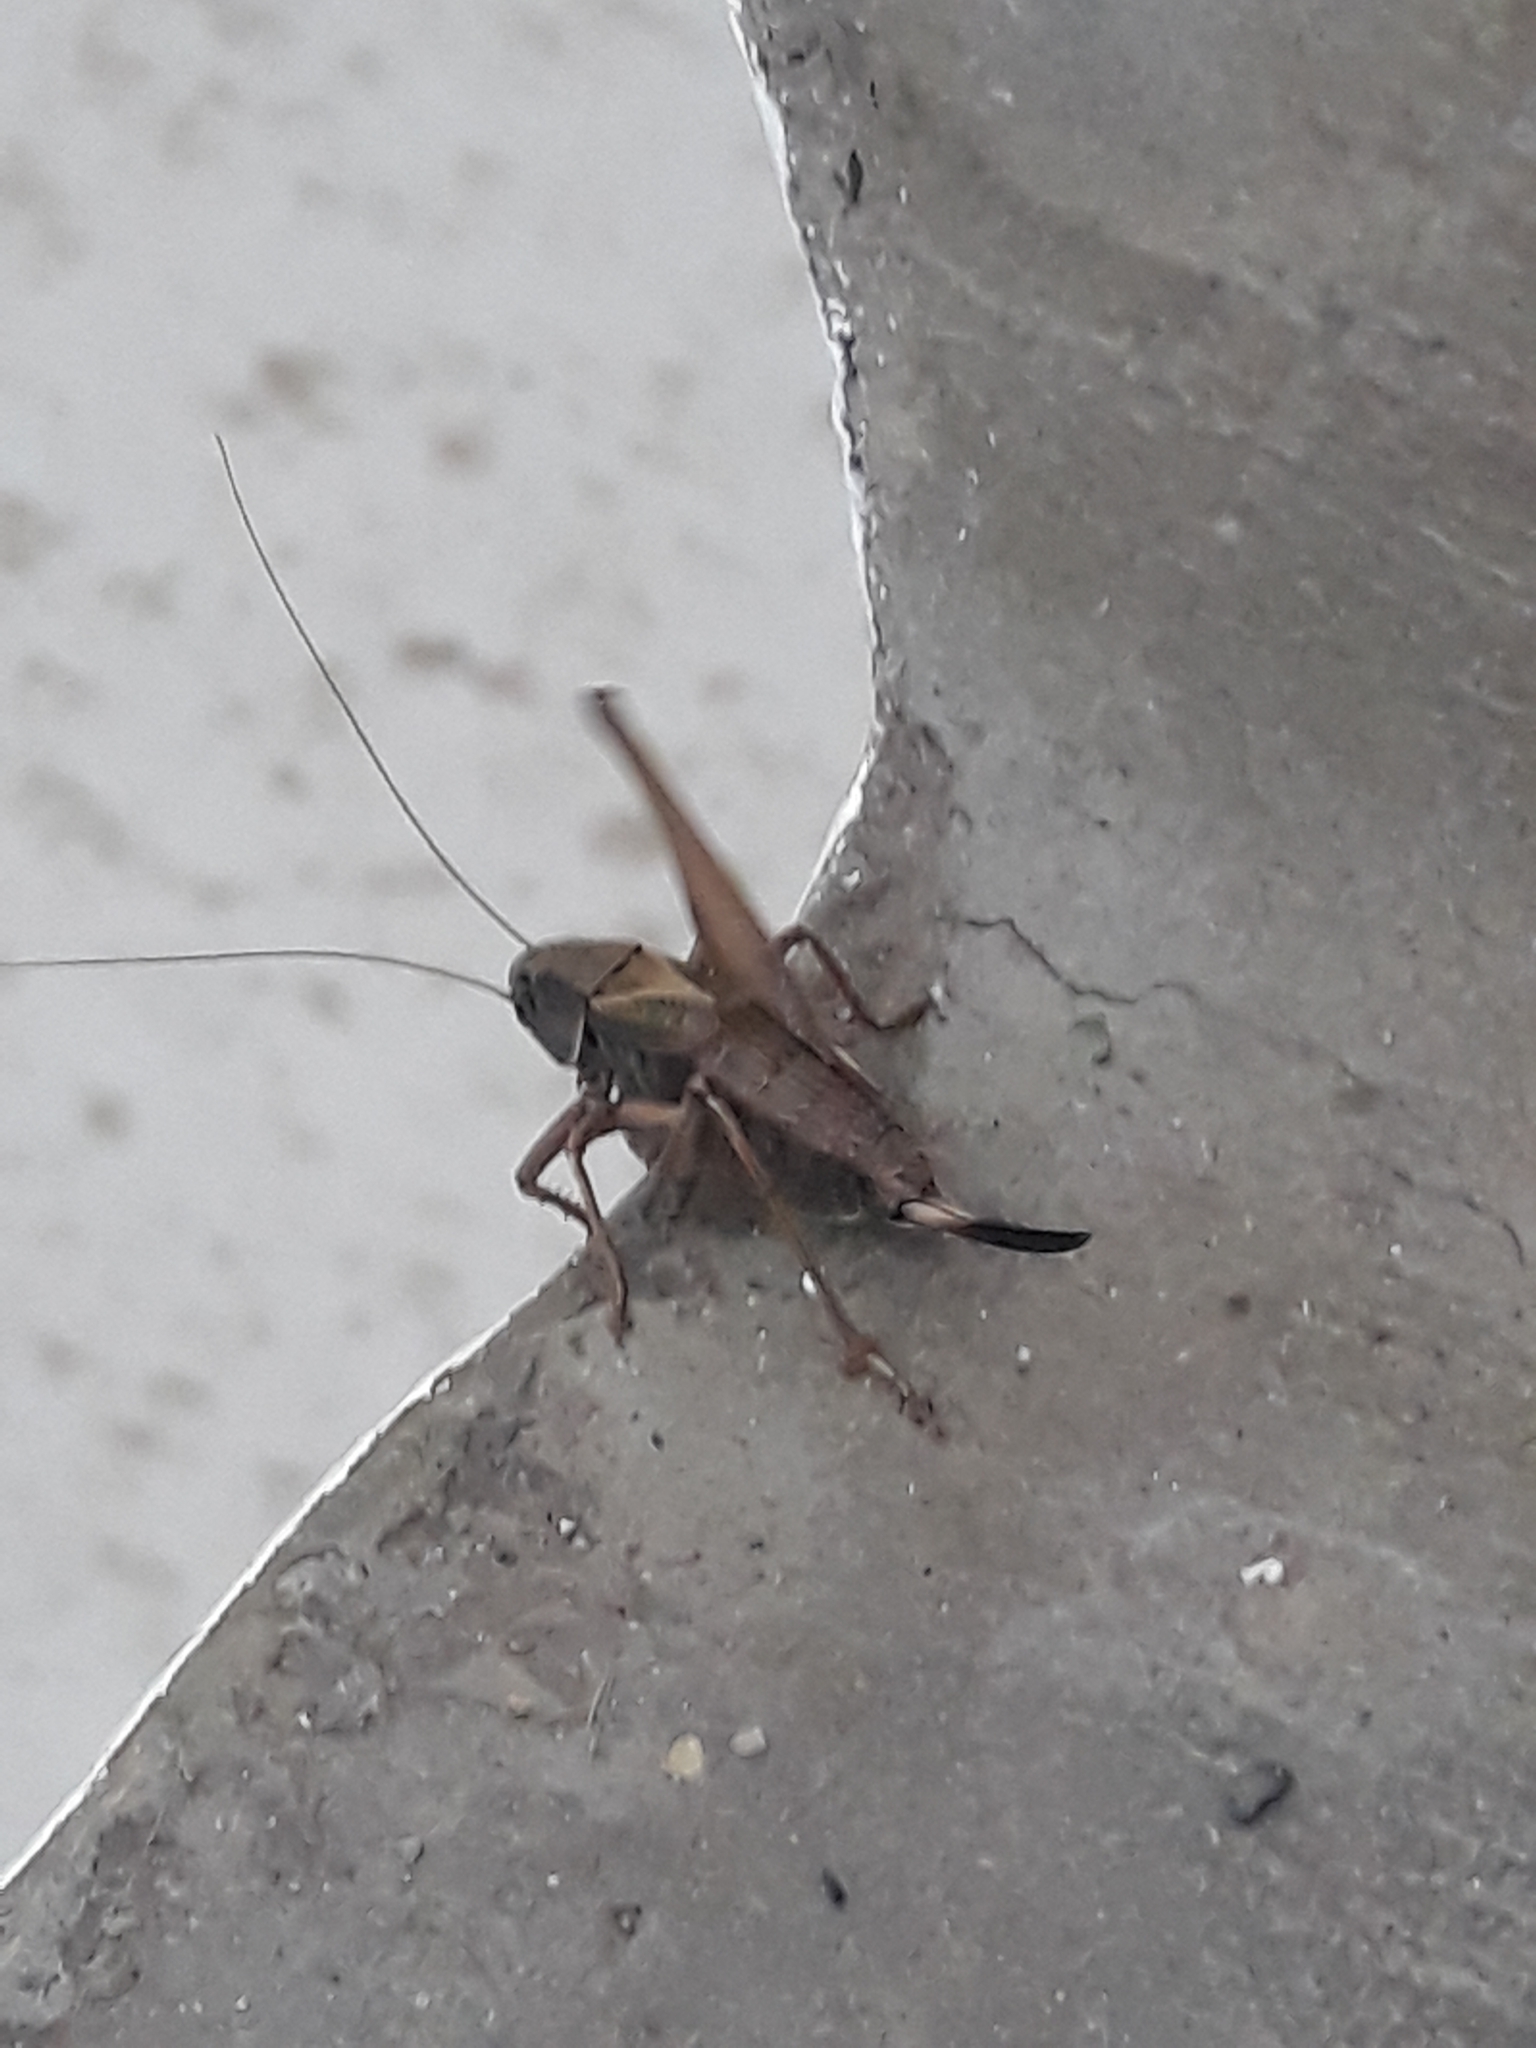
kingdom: Animalia
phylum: Arthropoda
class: Insecta
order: Orthoptera
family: Tettigoniidae
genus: Metrioptera
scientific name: Metrioptera saussuriana
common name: Purple meadow bush-cricket
